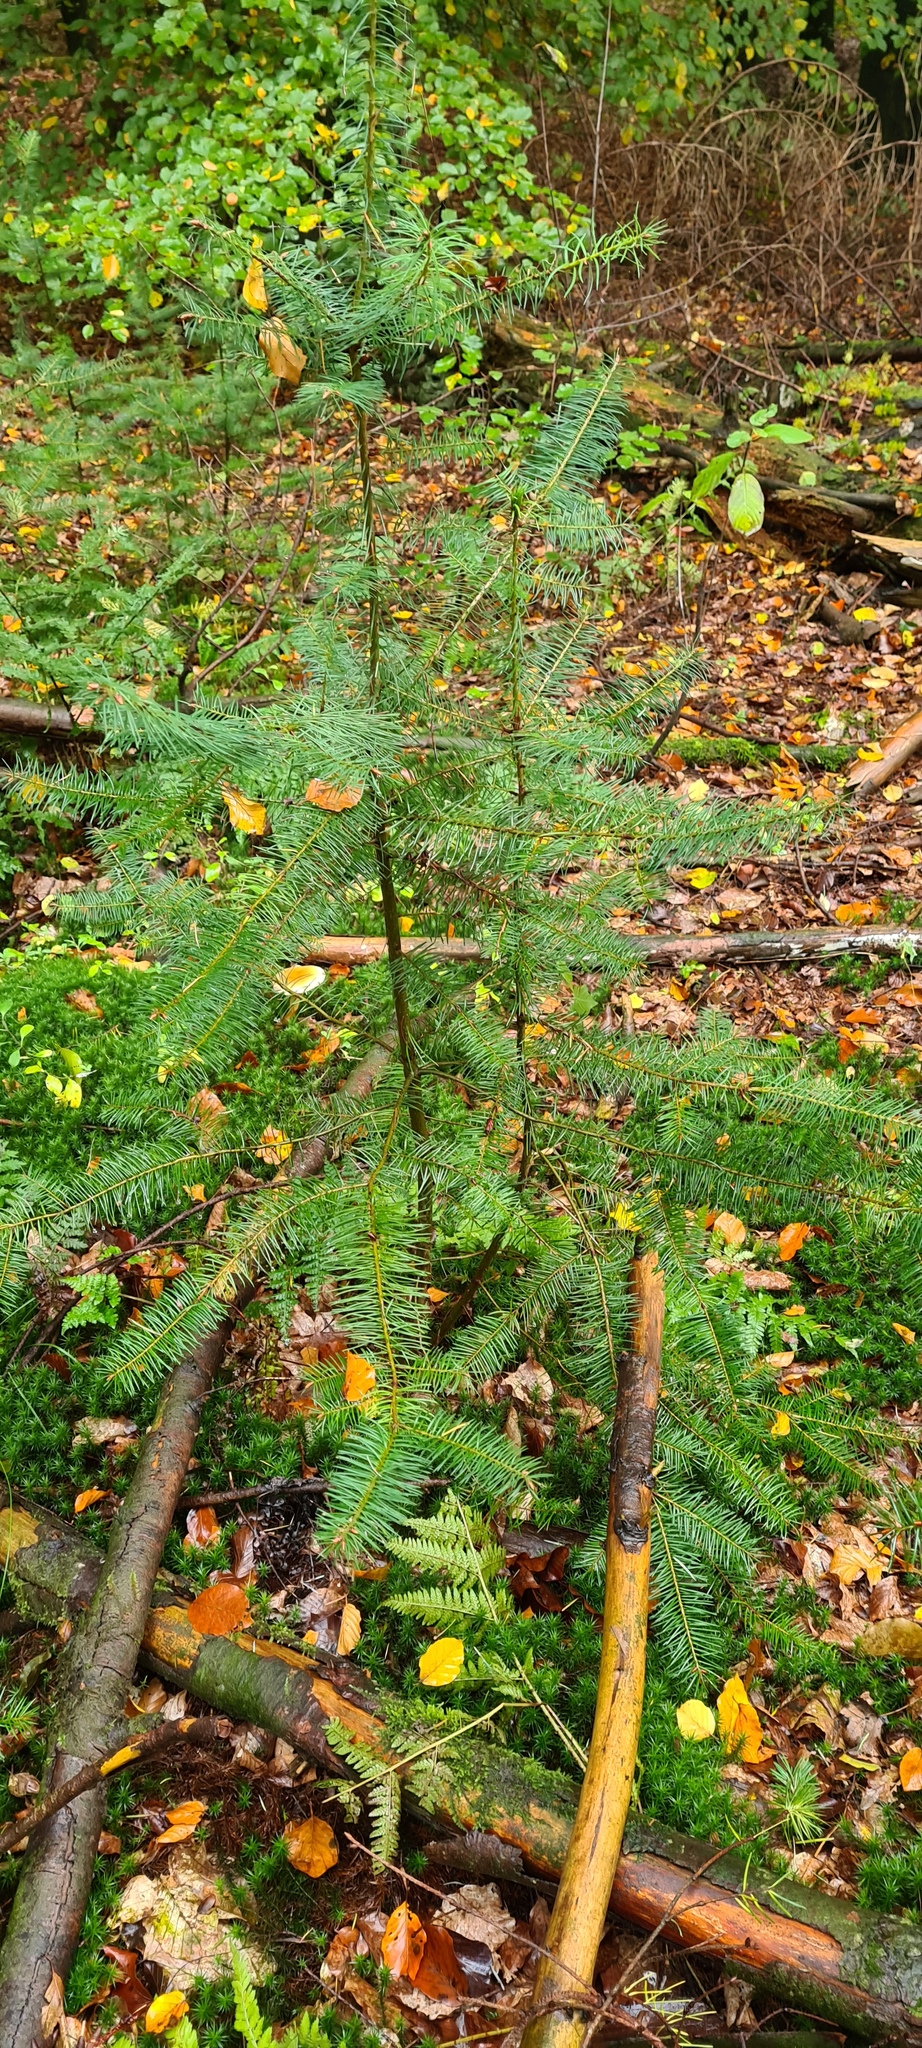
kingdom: Plantae
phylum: Tracheophyta
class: Pinopsida
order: Pinales
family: Taxaceae
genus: Taxus
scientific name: Taxus baccata
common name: Yew
